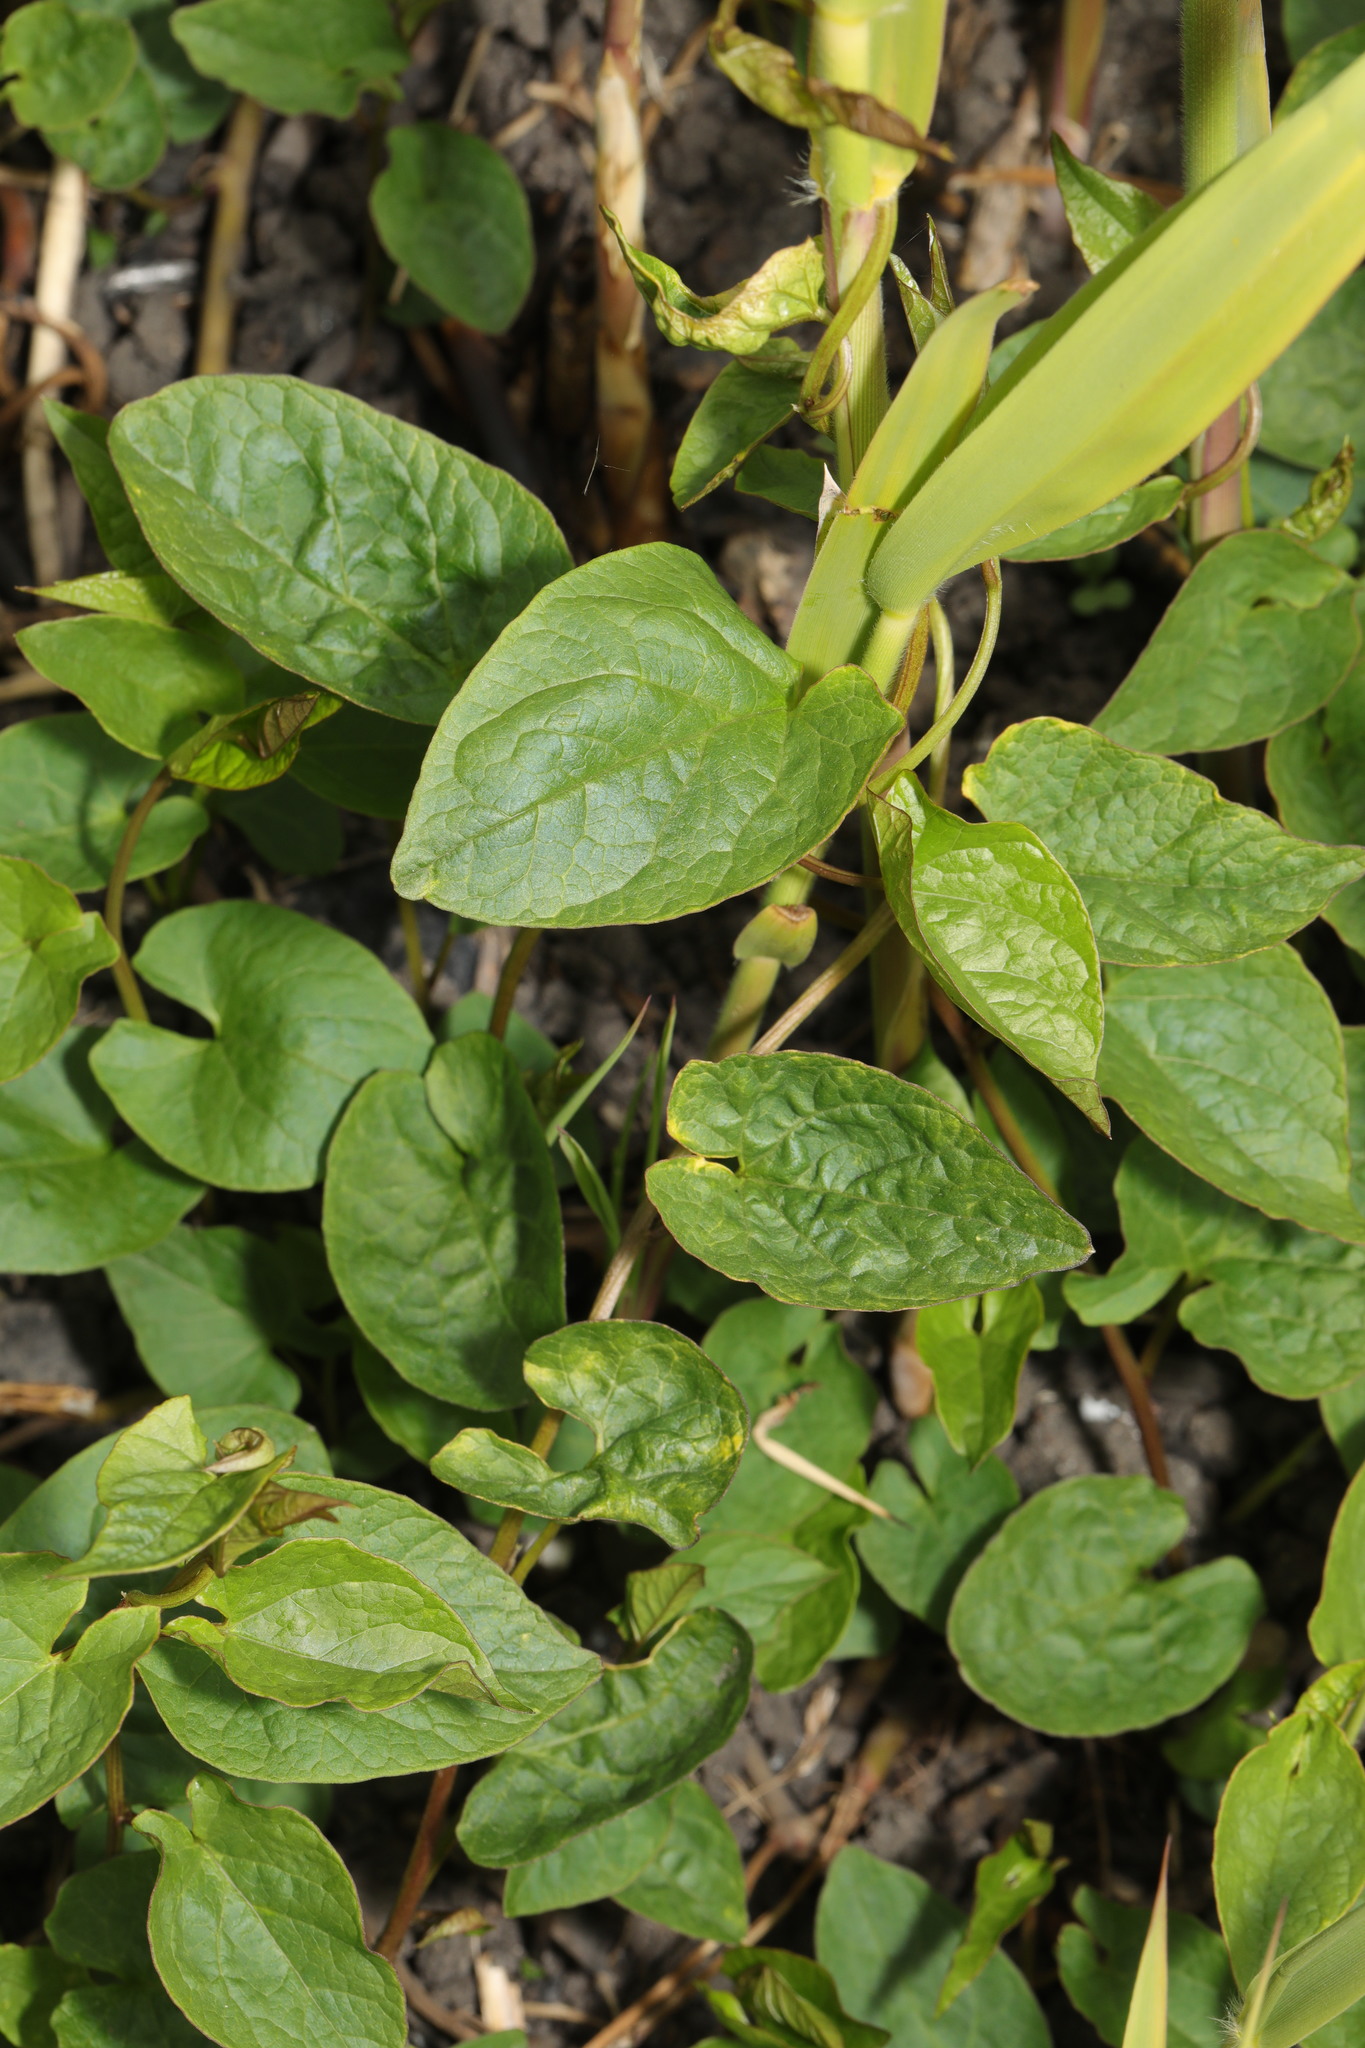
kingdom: Plantae
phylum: Tracheophyta
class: Magnoliopsida
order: Caryophyllales
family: Polygonaceae
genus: Fallopia
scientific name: Fallopia convolvulus
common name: Black bindweed
